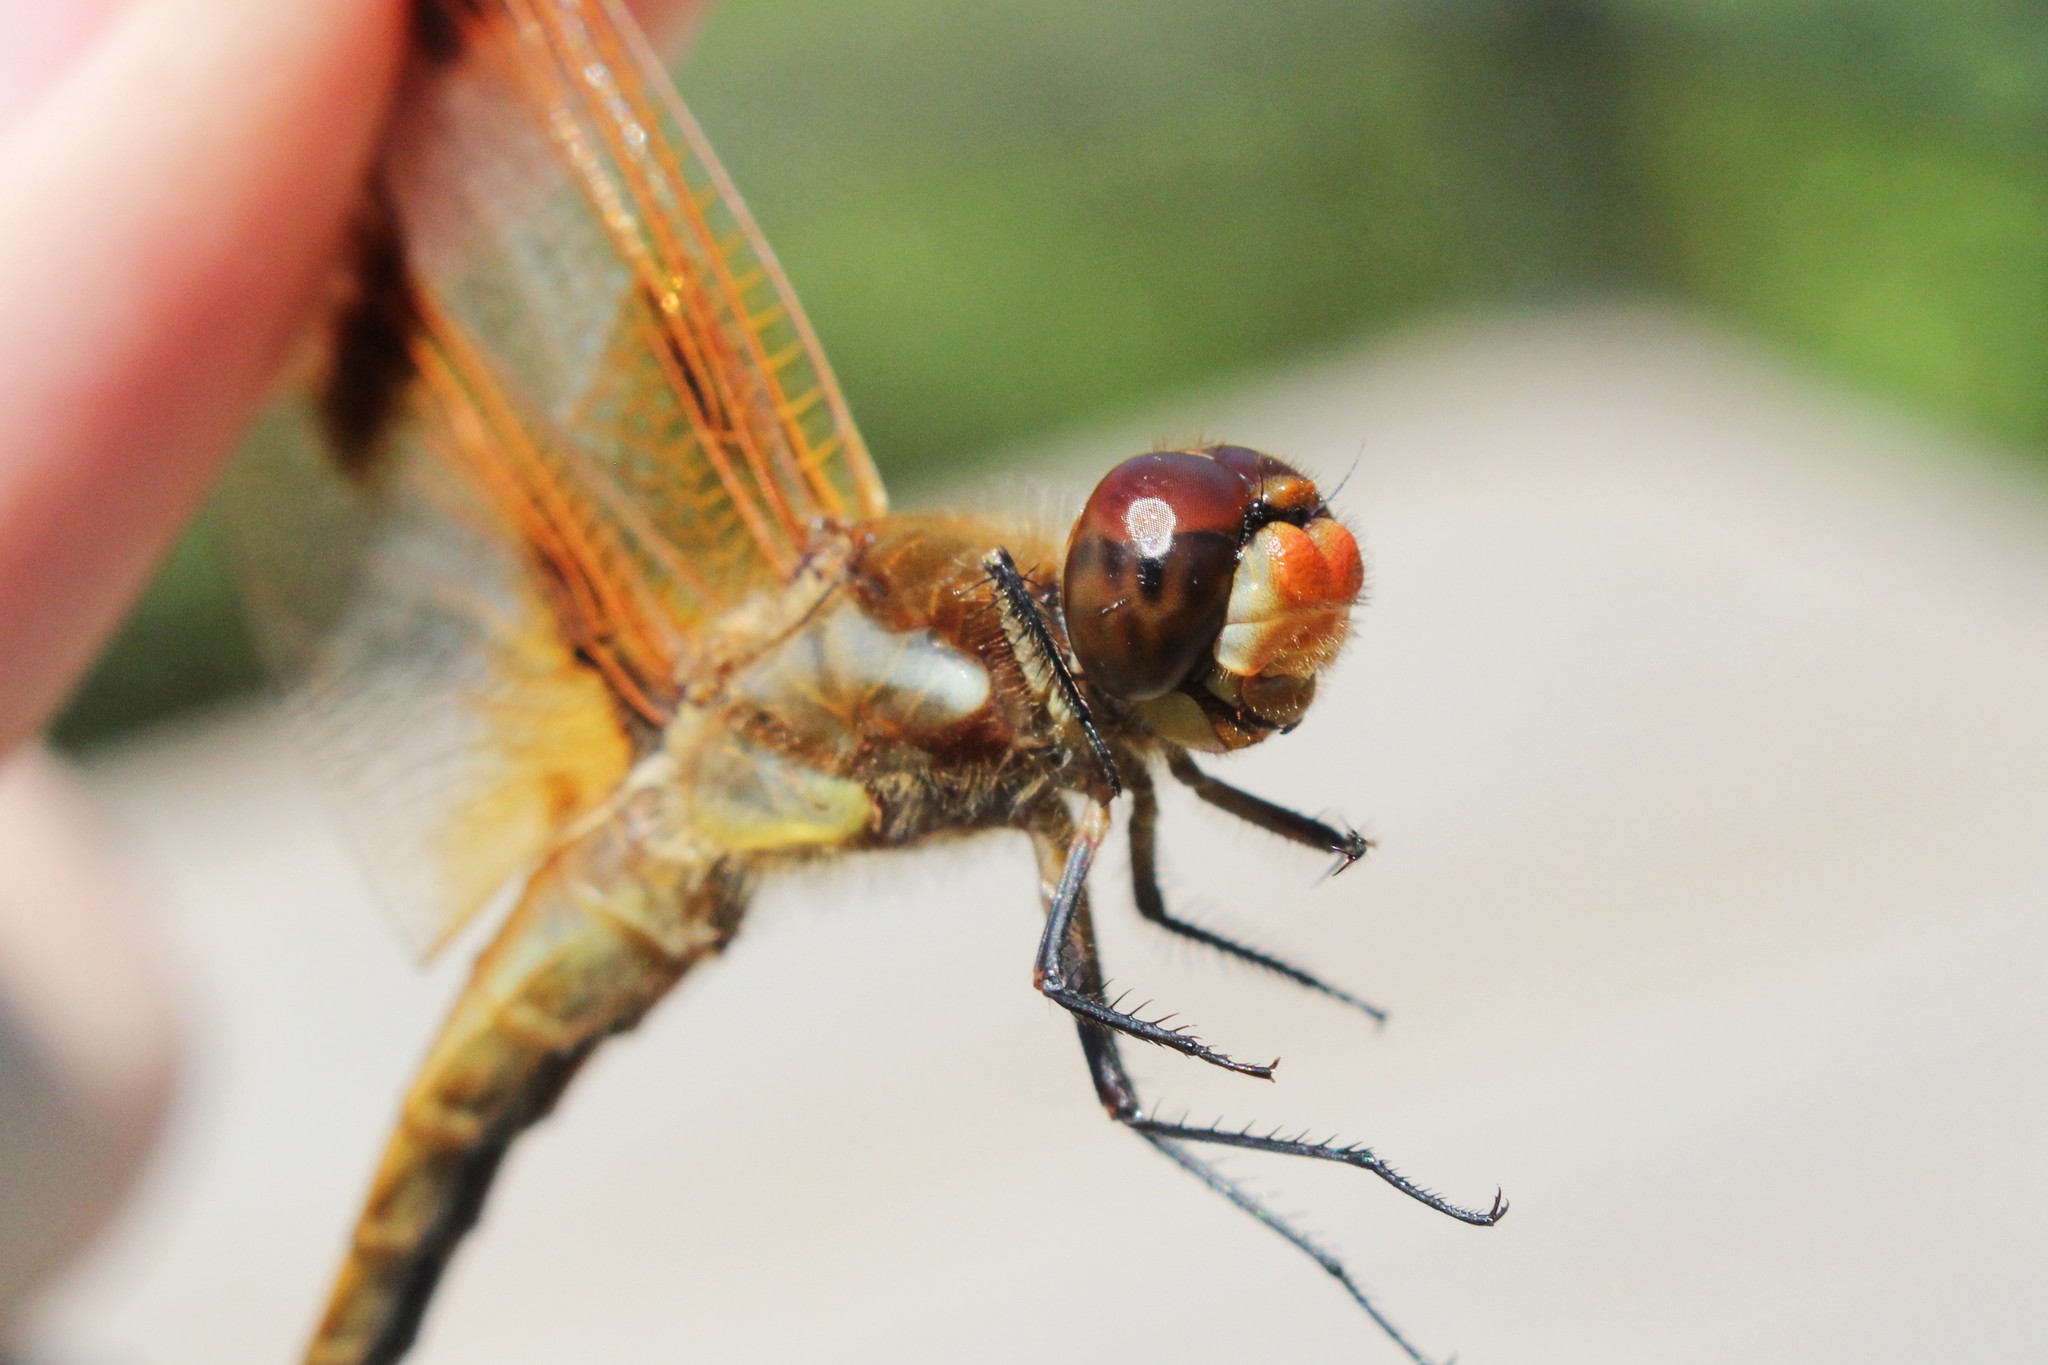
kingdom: Animalia
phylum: Arthropoda
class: Insecta
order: Odonata
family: Libellulidae
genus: Libellula
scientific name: Libellula semifasciata
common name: Painted skimmer
